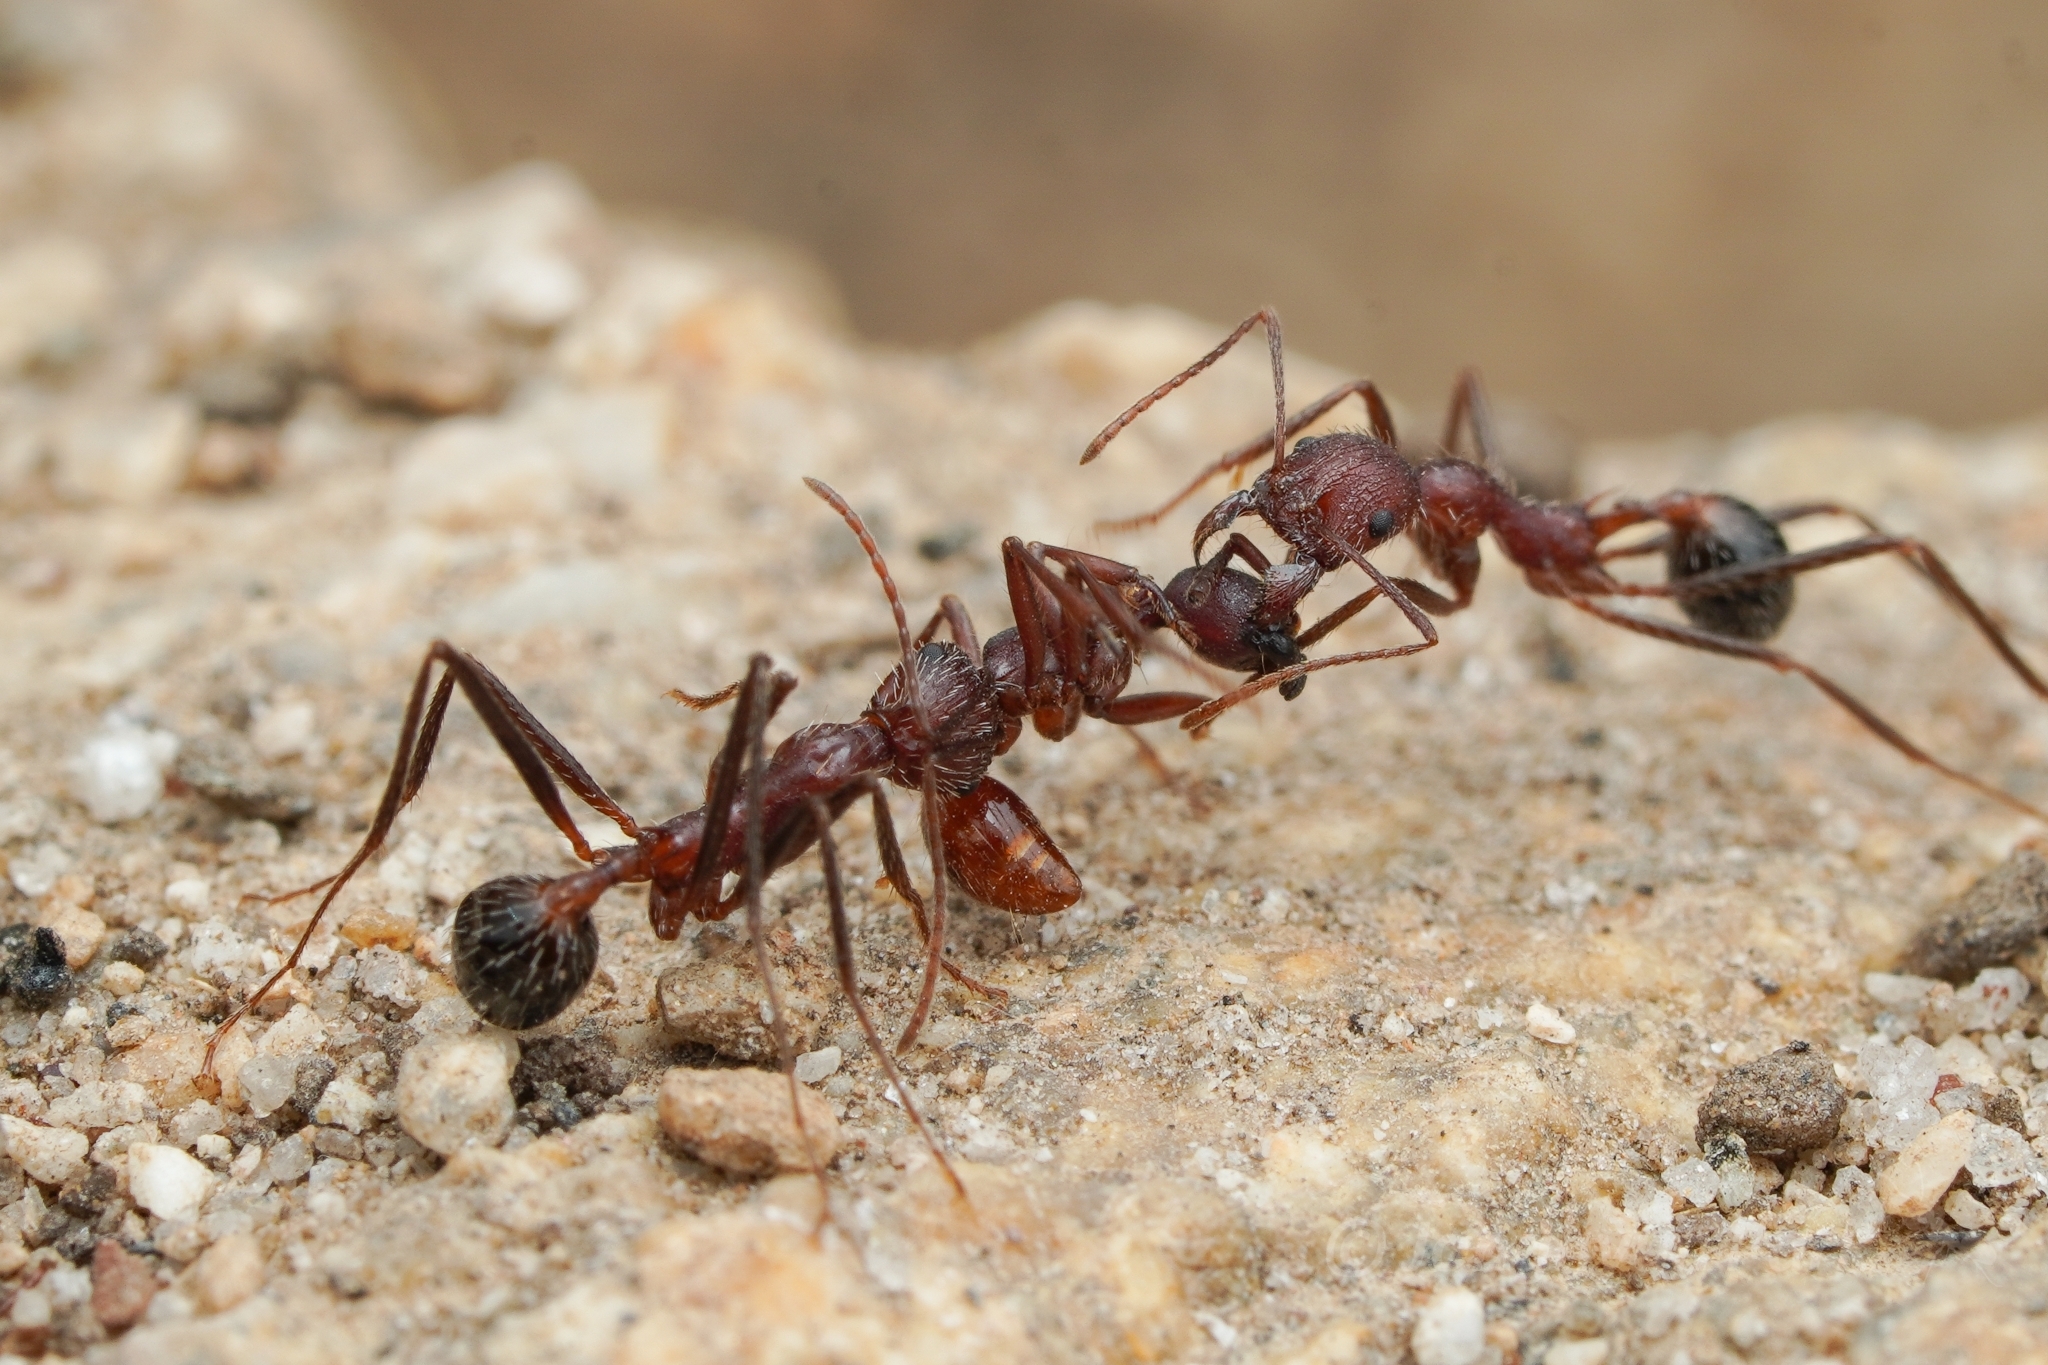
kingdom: Animalia
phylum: Arthropoda
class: Insecta
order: Hymenoptera
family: Formicidae
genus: Novomessor
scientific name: Novomessor albisetosa
